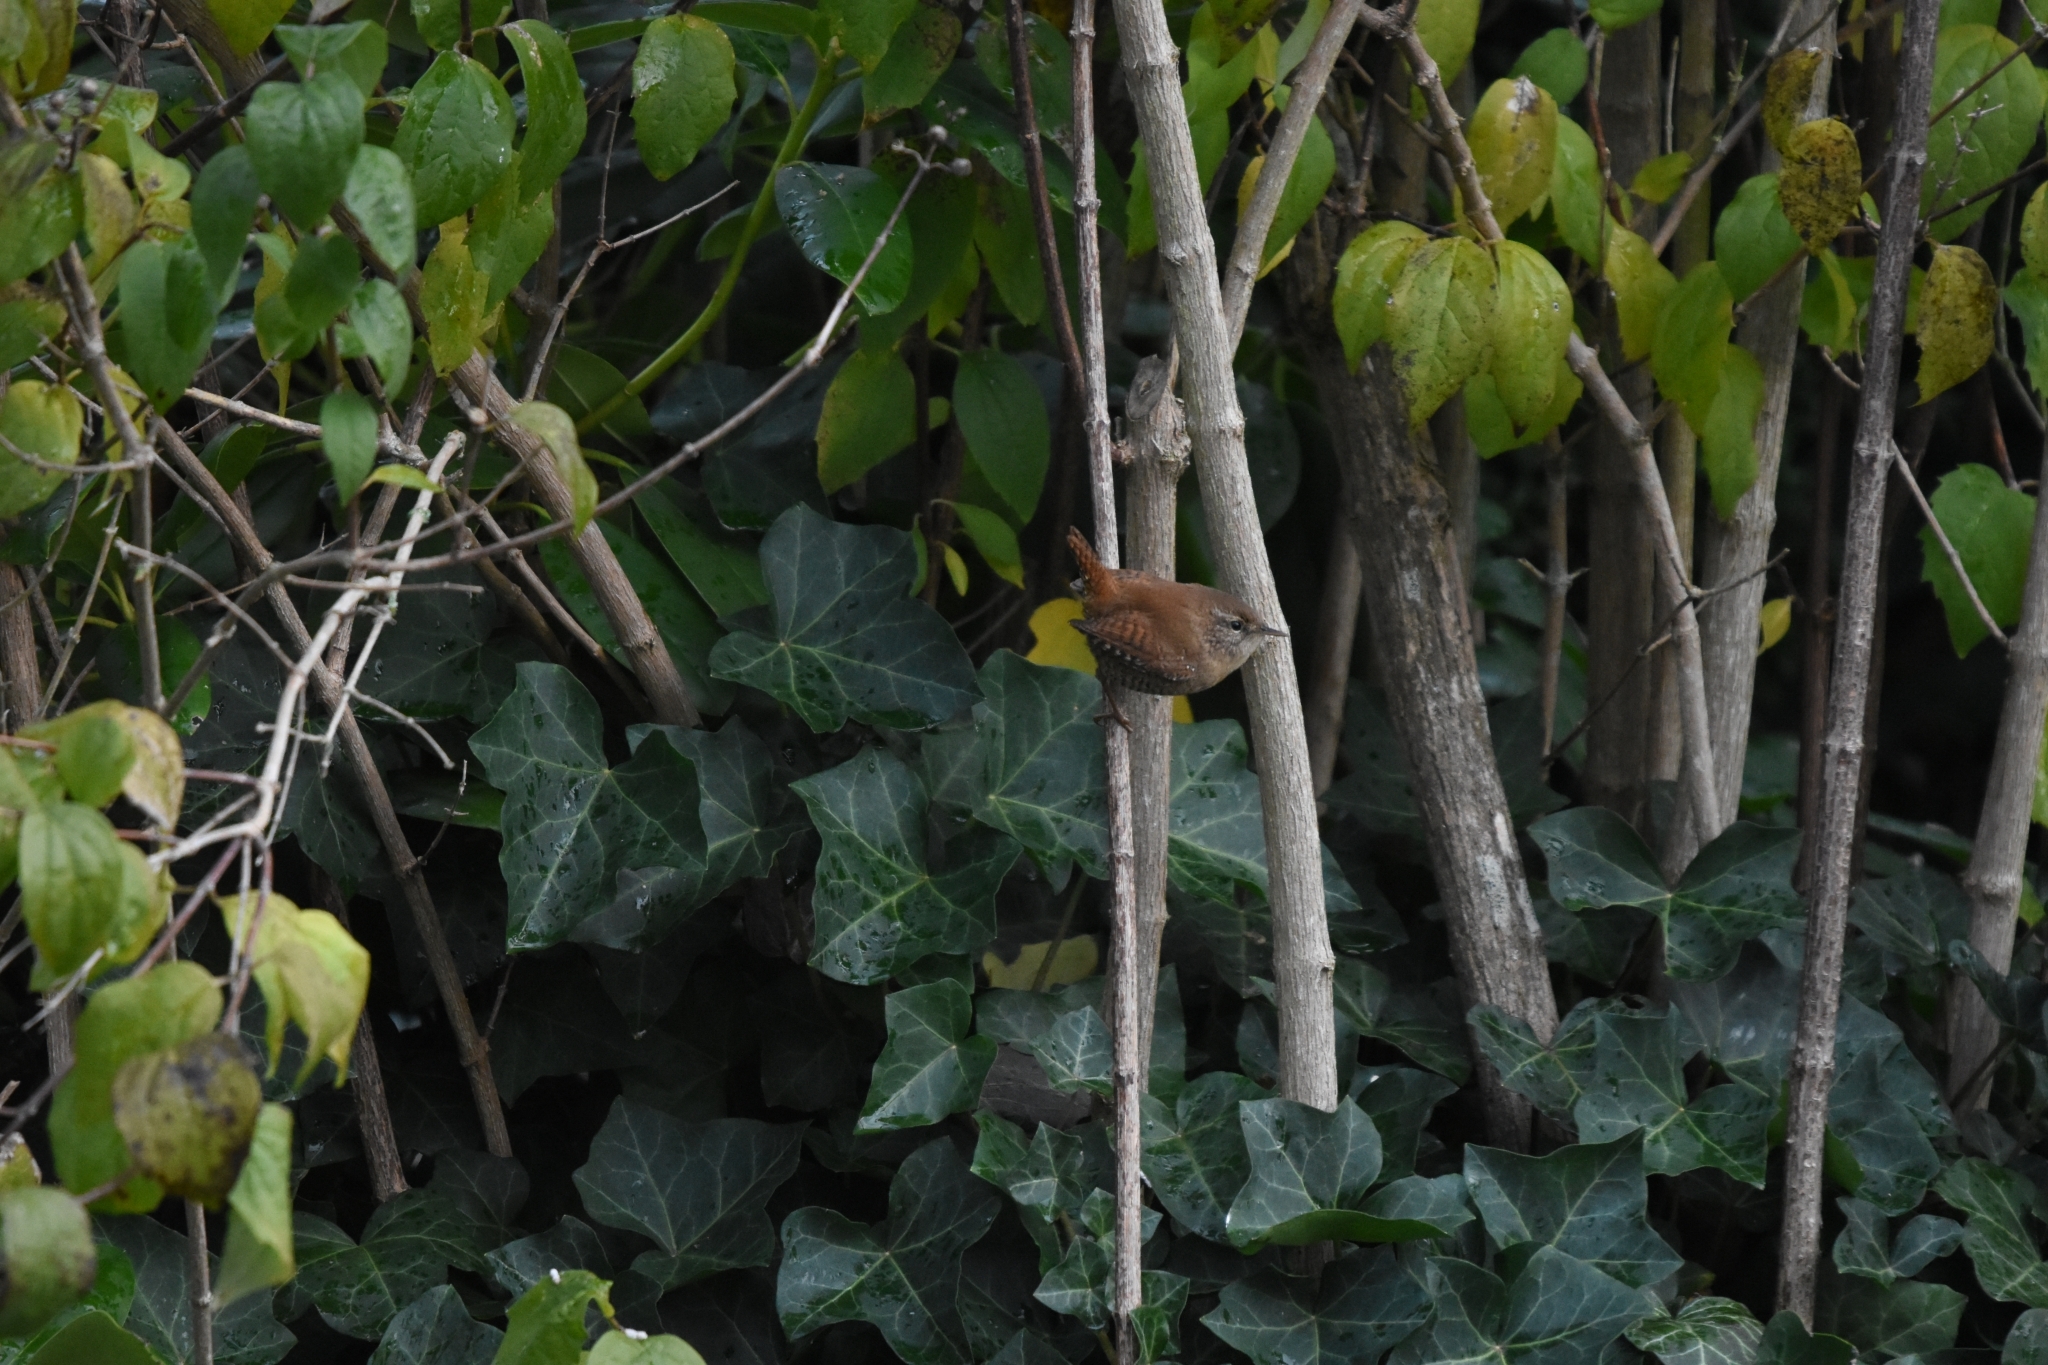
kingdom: Animalia
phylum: Chordata
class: Aves
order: Passeriformes
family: Troglodytidae
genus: Troglodytes
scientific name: Troglodytes troglodytes
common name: Eurasian wren
